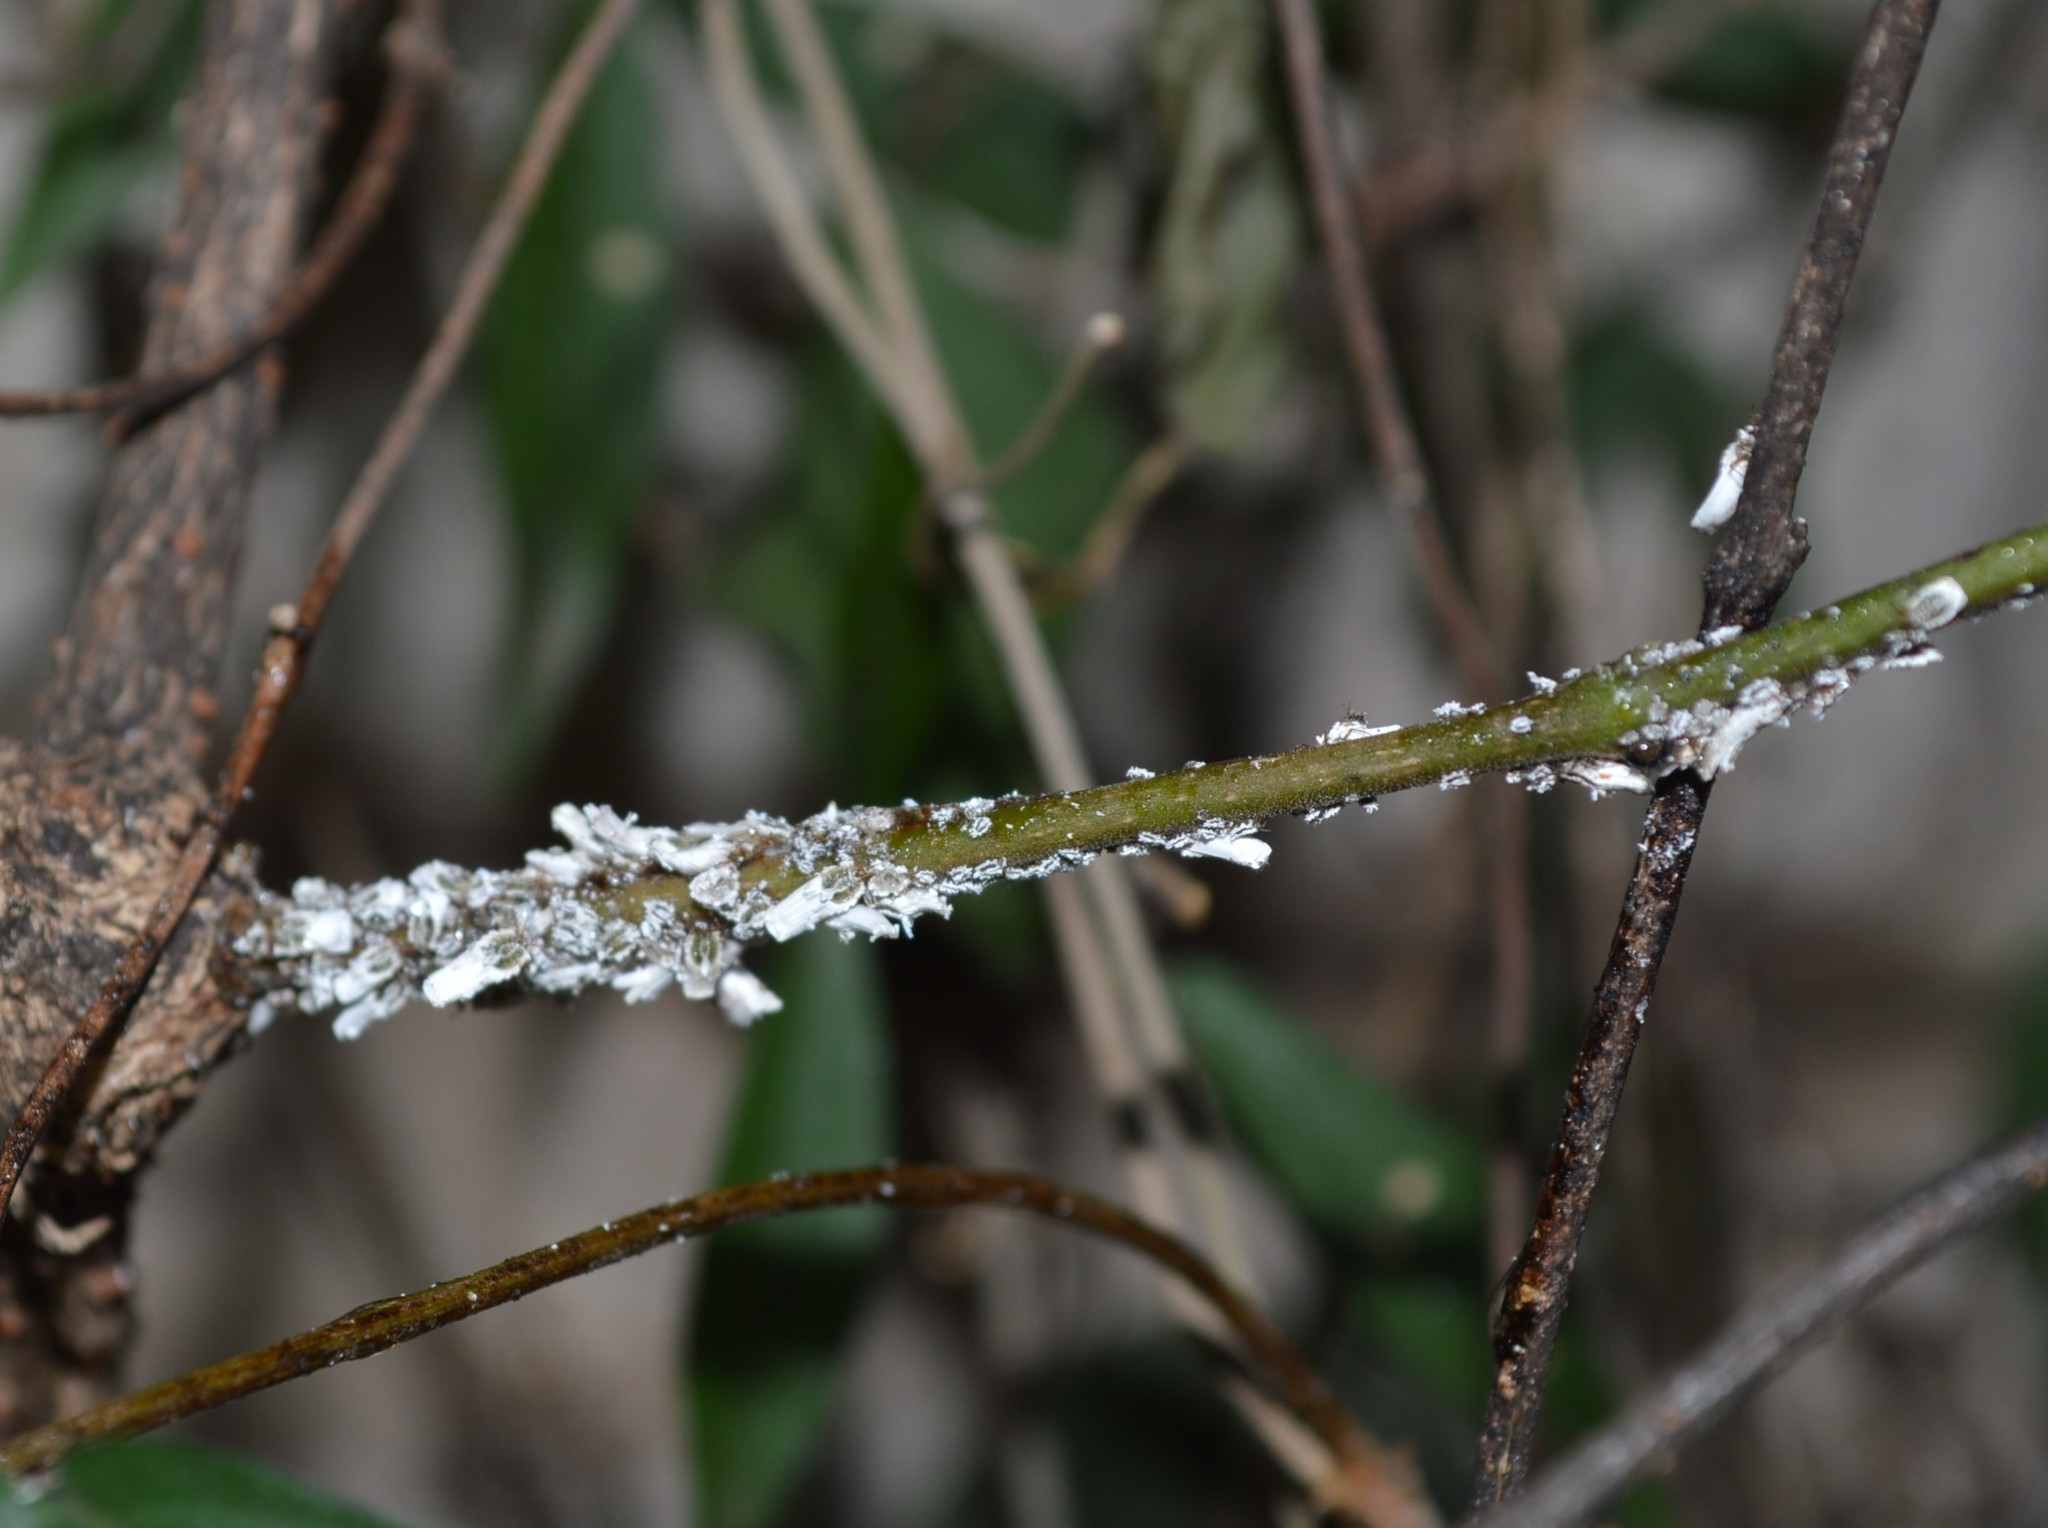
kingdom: Animalia
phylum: Arthropoda
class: Insecta
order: Hemiptera
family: Ortheziidae
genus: Insignorthezia
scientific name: Insignorthezia insignis
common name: Greenhouse orthezia
